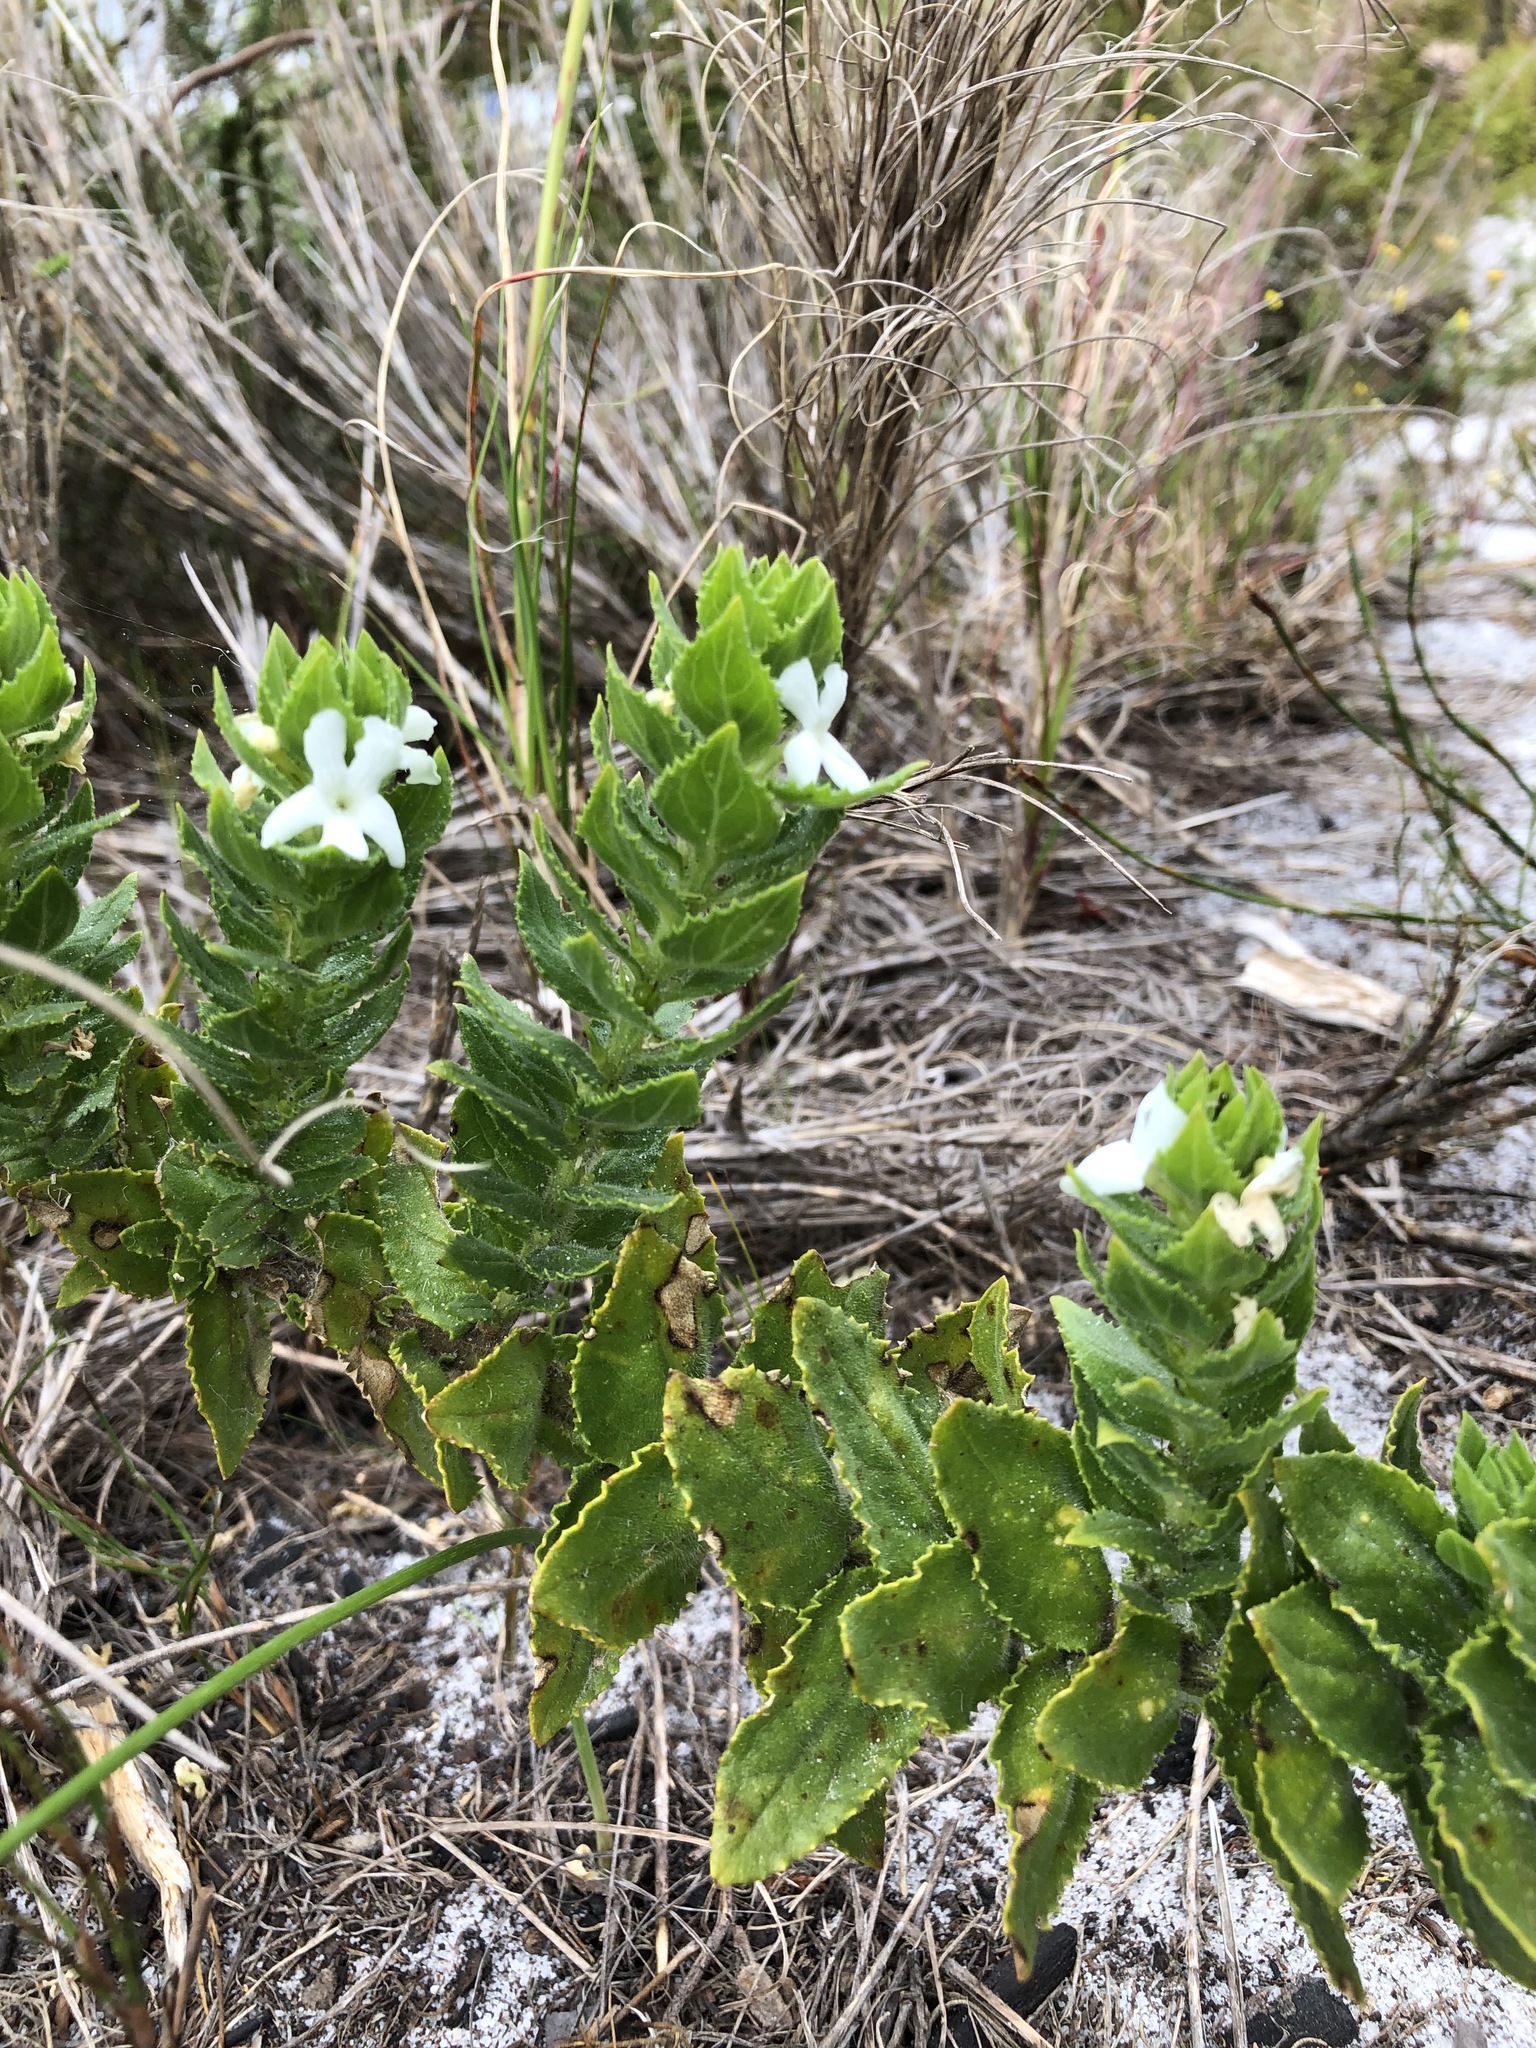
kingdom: Plantae
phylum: Tracheophyta
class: Magnoliopsida
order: Lamiales
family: Scrophulariaceae
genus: Oftia
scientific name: Oftia africana
